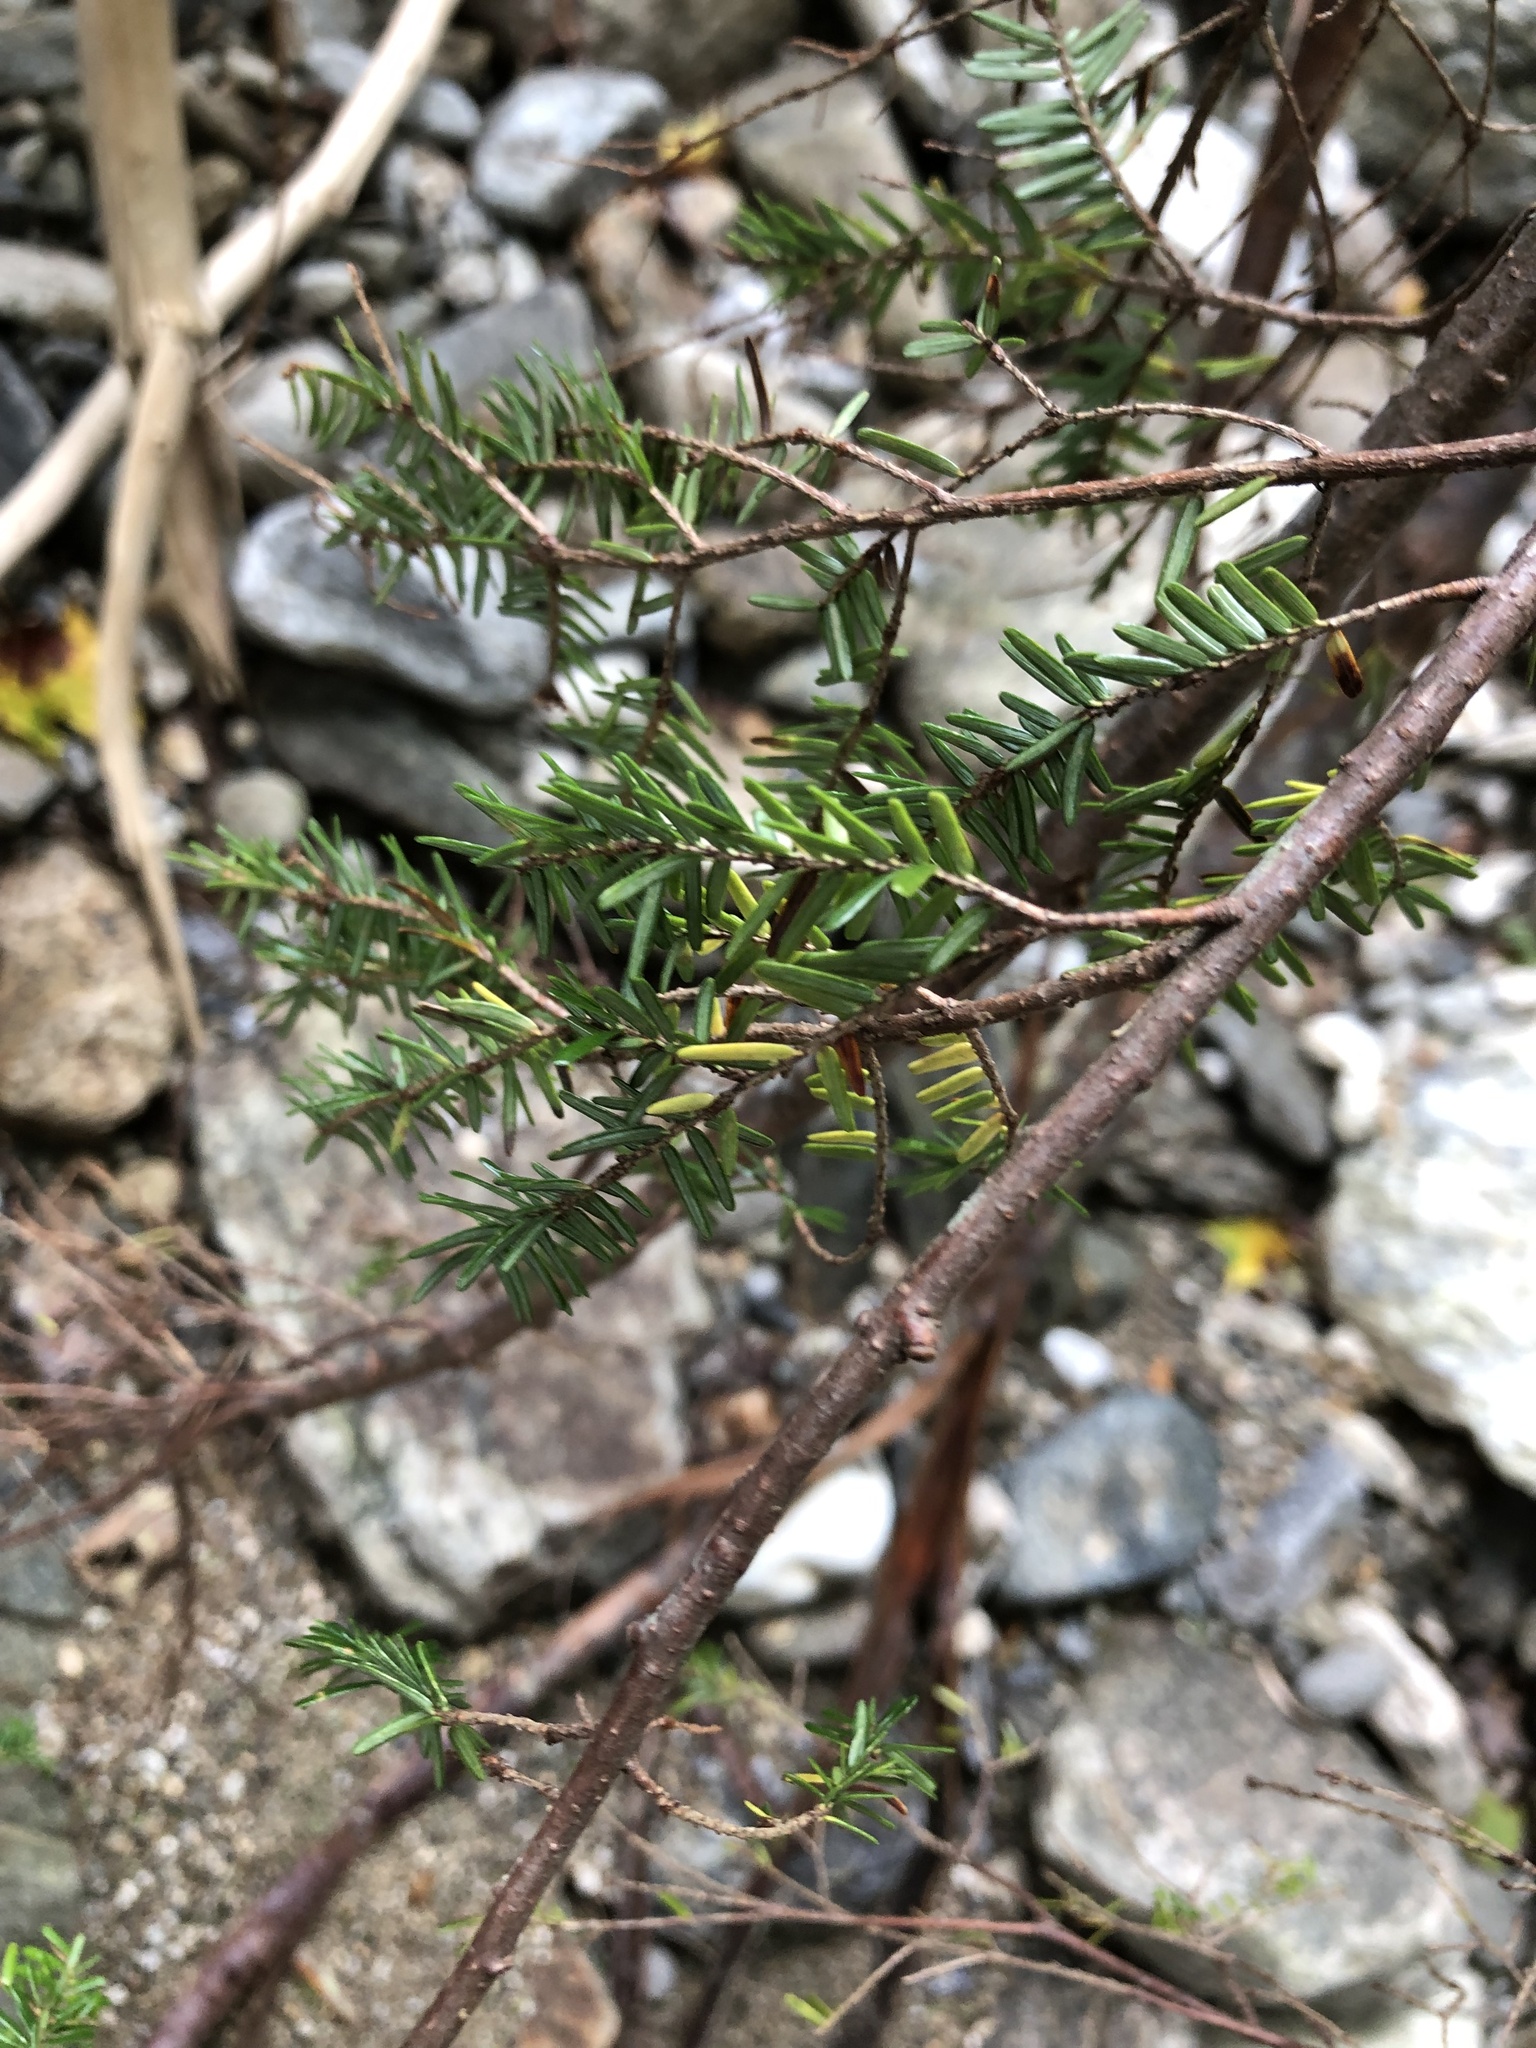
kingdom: Plantae
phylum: Tracheophyta
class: Pinopsida
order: Pinales
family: Pinaceae
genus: Tsuga
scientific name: Tsuga canadensis
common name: Eastern hemlock
